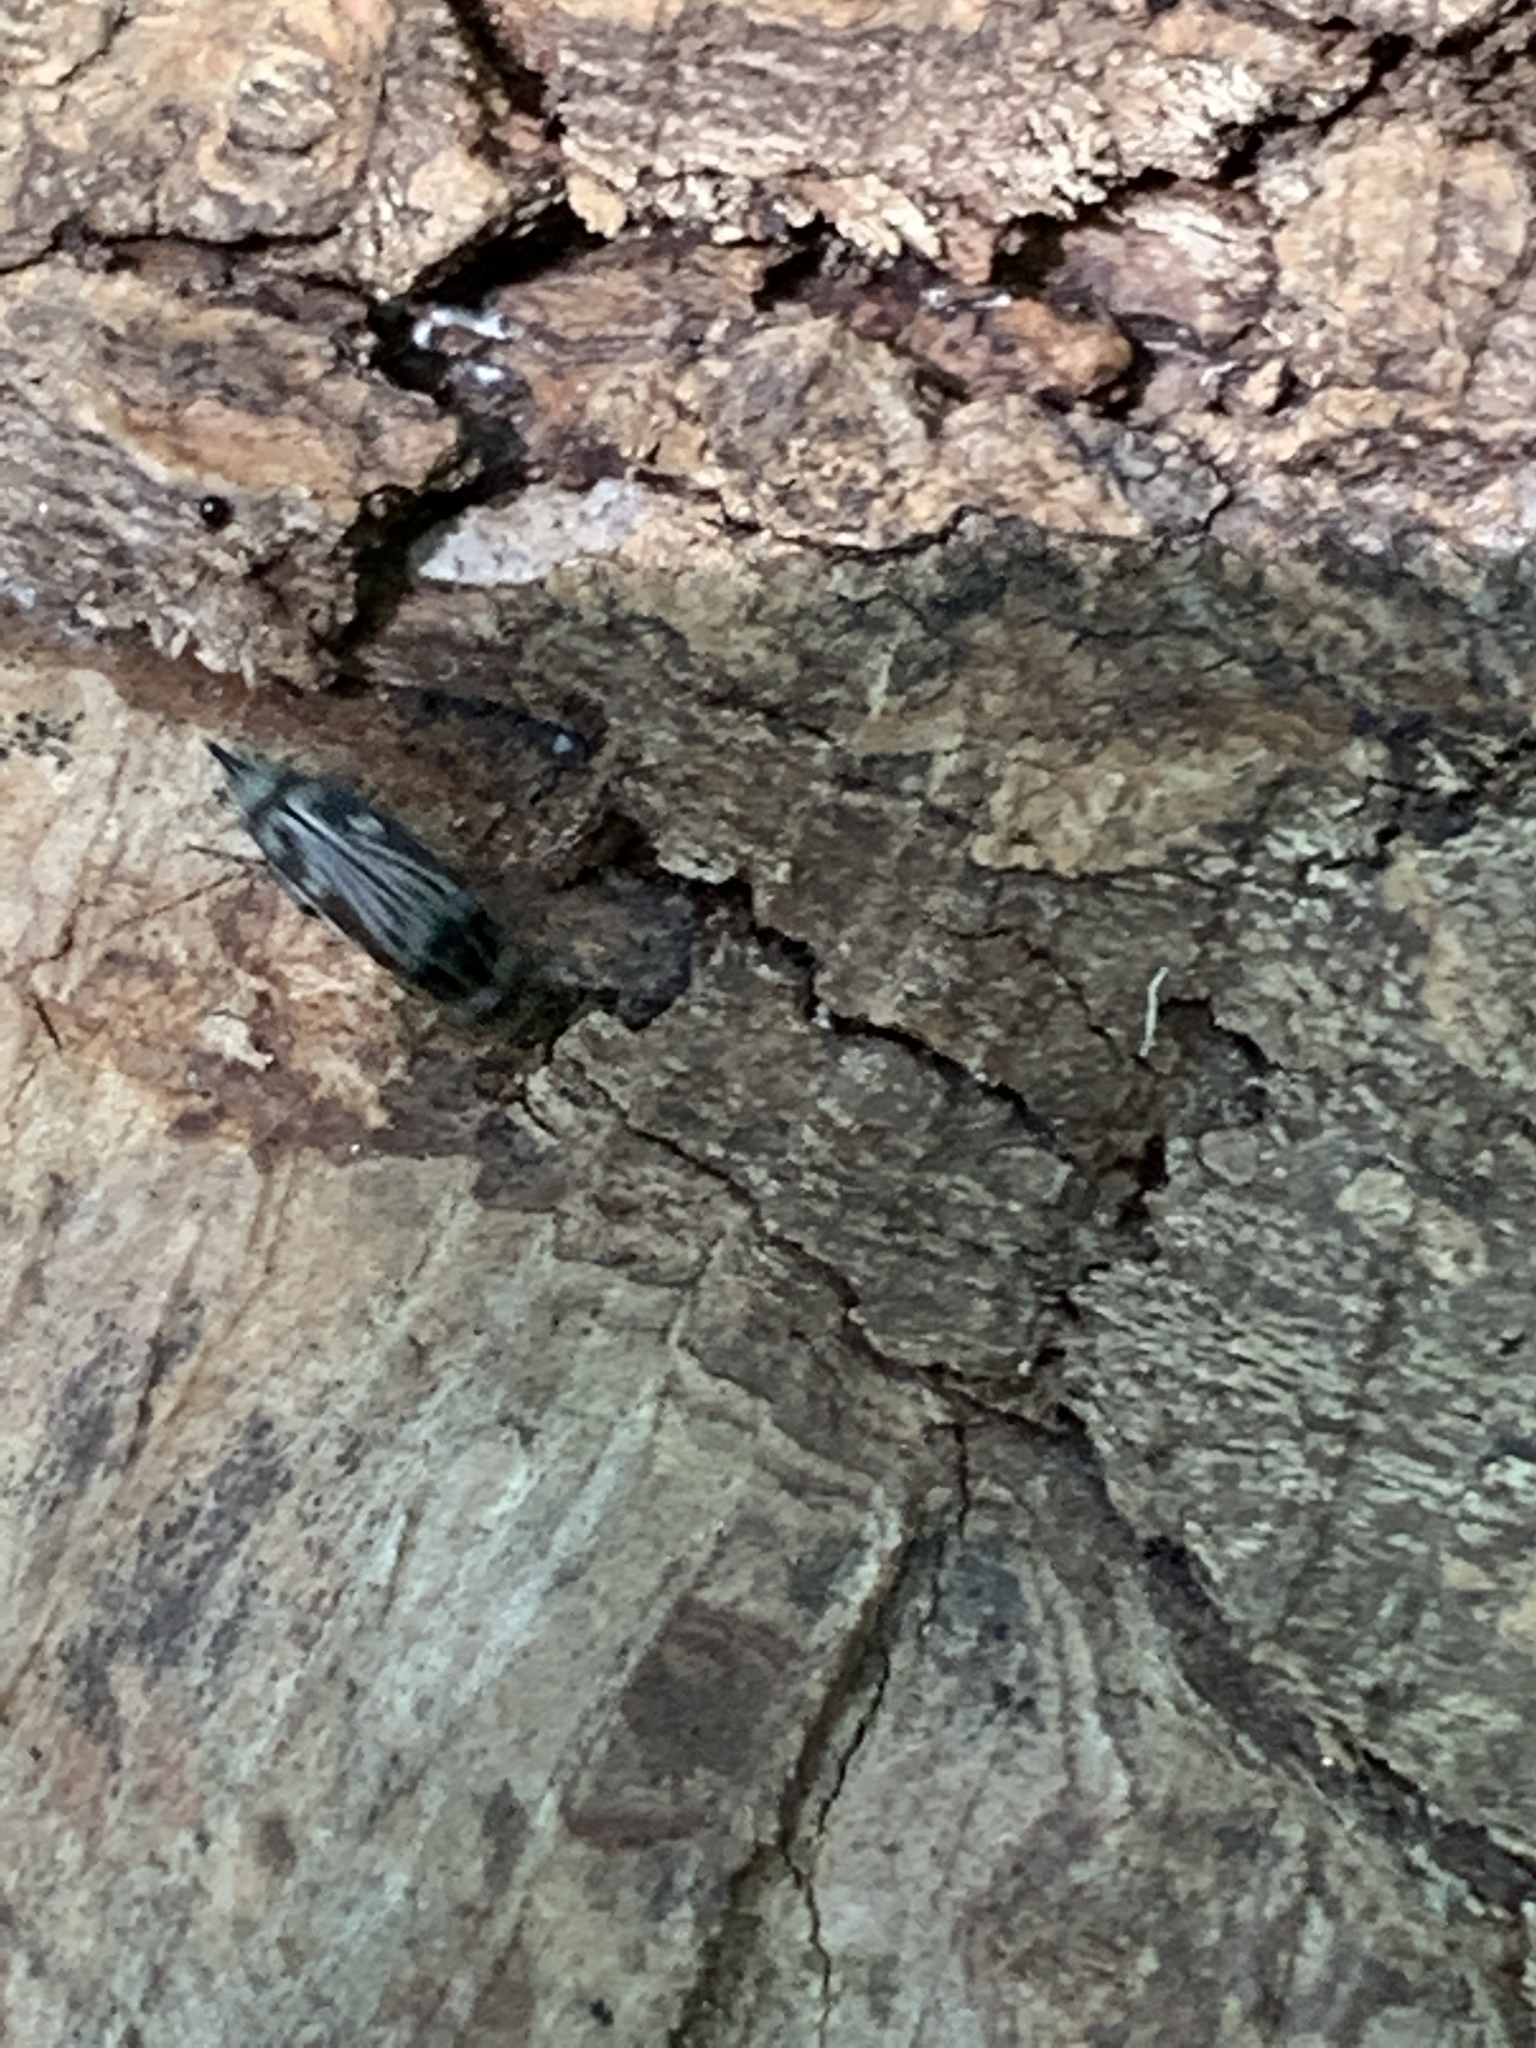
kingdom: Animalia
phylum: Arthropoda
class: Insecta
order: Coleoptera
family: Mordellidae
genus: Tomoxia
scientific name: Tomoxia lineella
